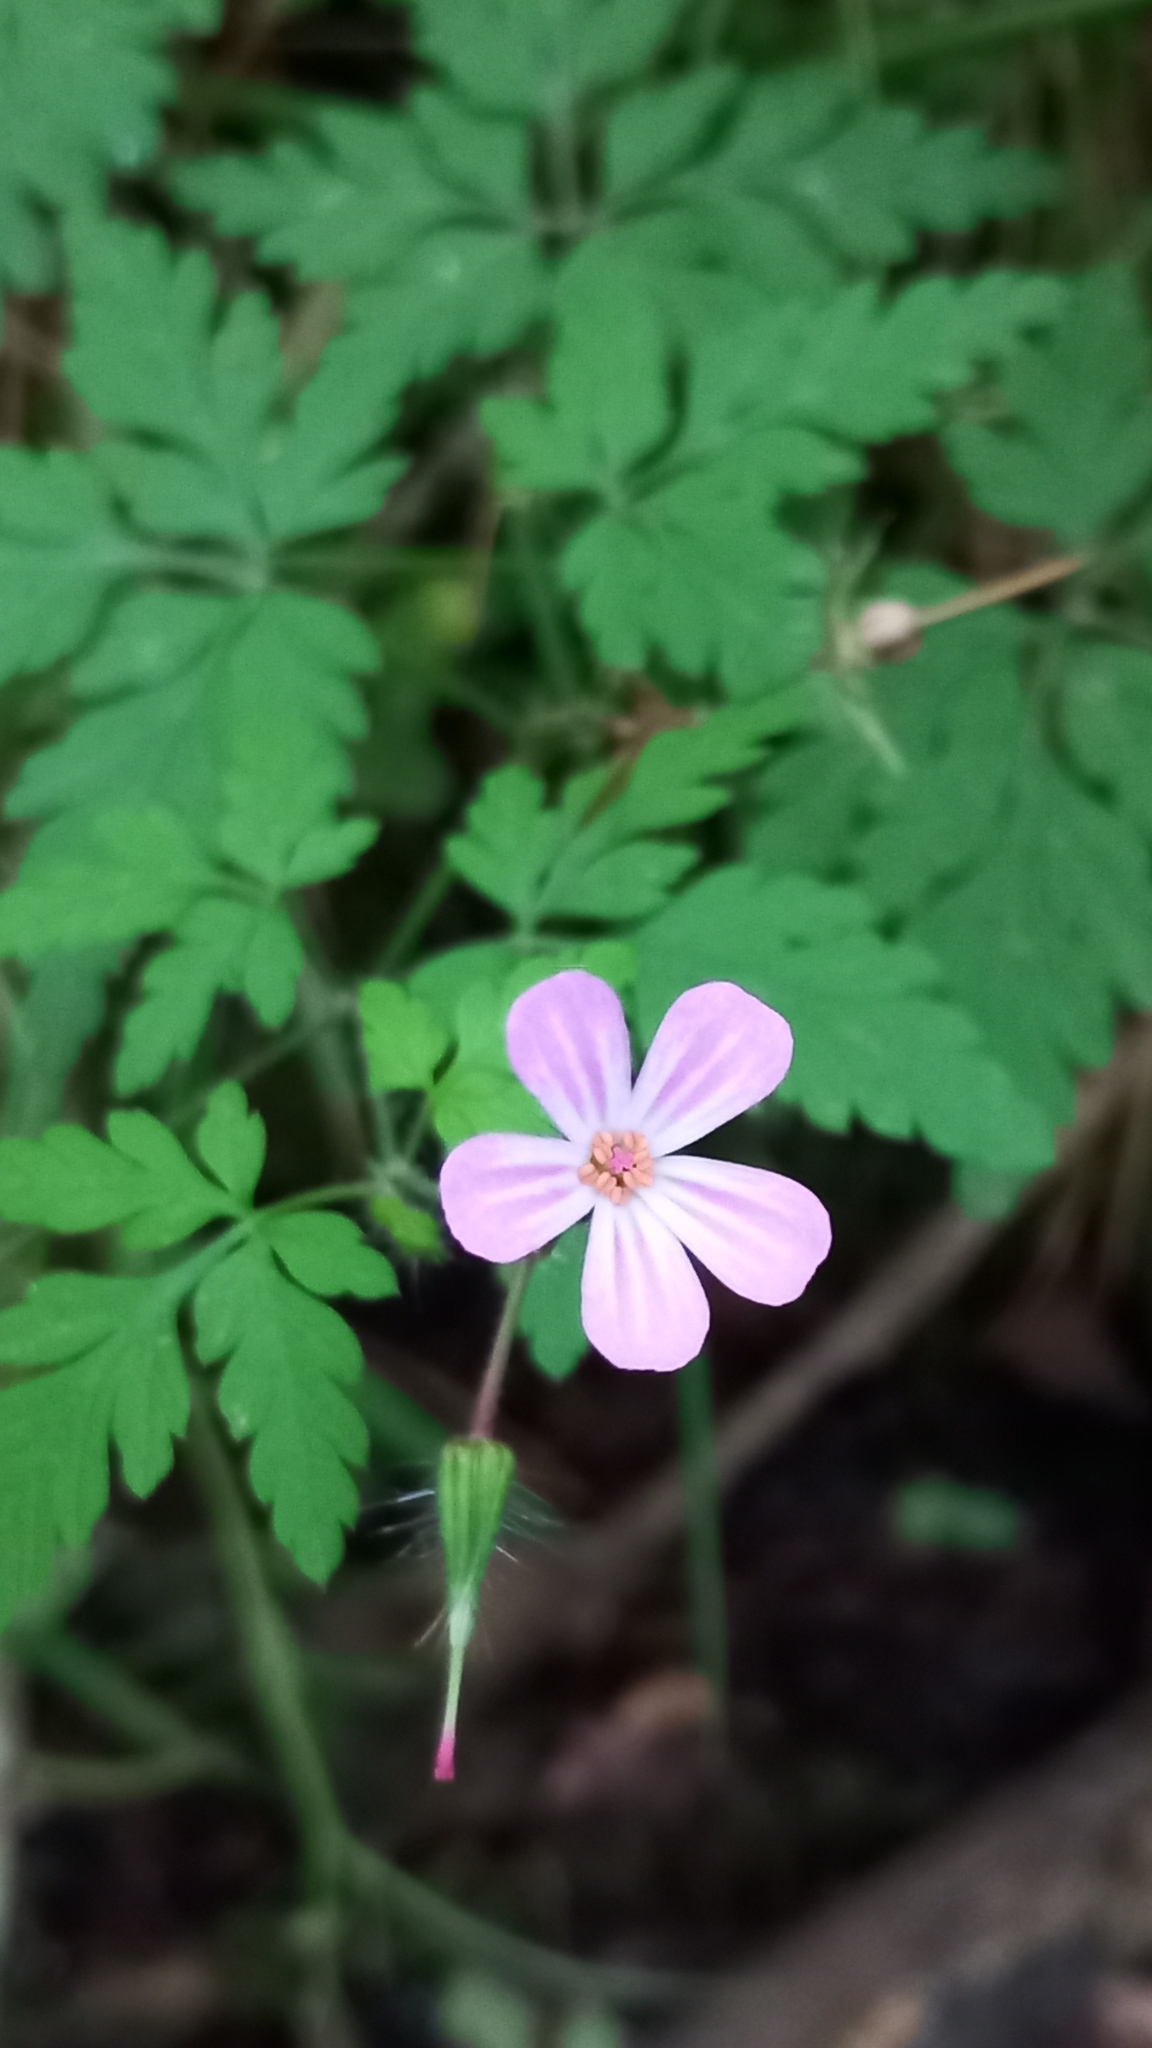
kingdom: Plantae
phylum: Tracheophyta
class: Magnoliopsida
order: Geraniales
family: Geraniaceae
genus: Geranium
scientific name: Geranium robertianum
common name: Herb-robert
